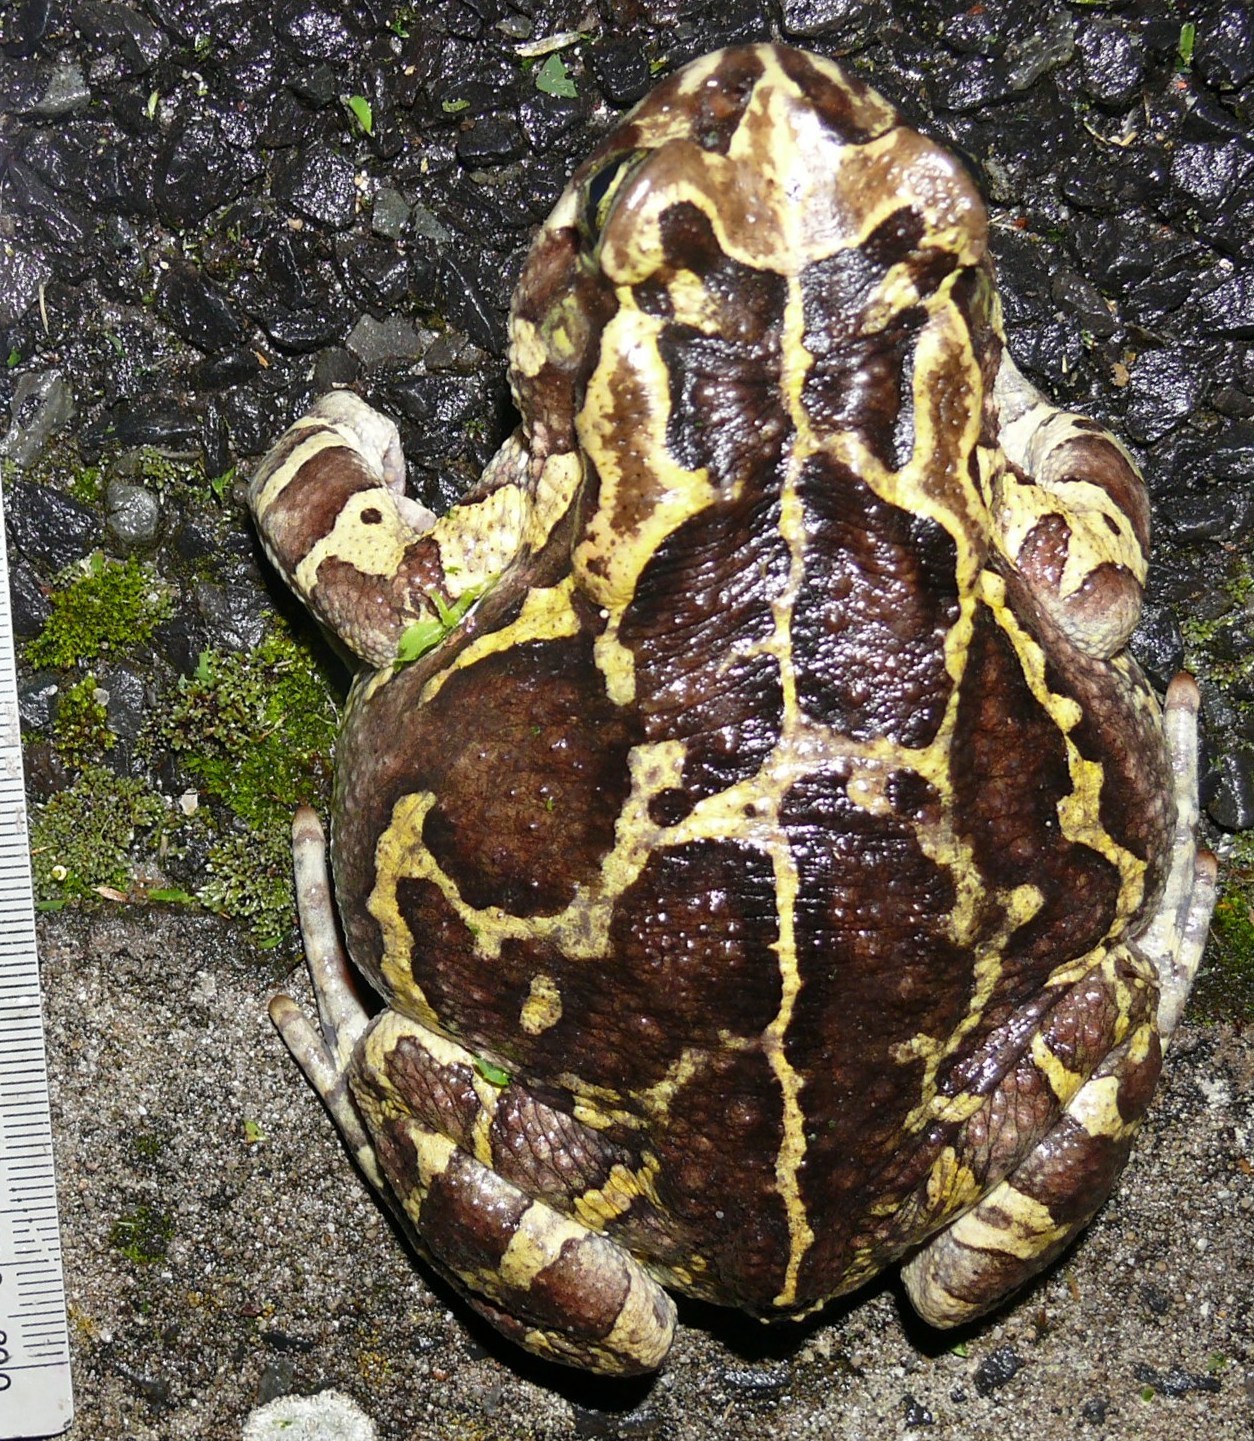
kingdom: Animalia
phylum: Chordata
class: Amphibia
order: Anura
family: Bufonidae
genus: Sclerophrys
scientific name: Sclerophrys pantherina
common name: Panther toad
